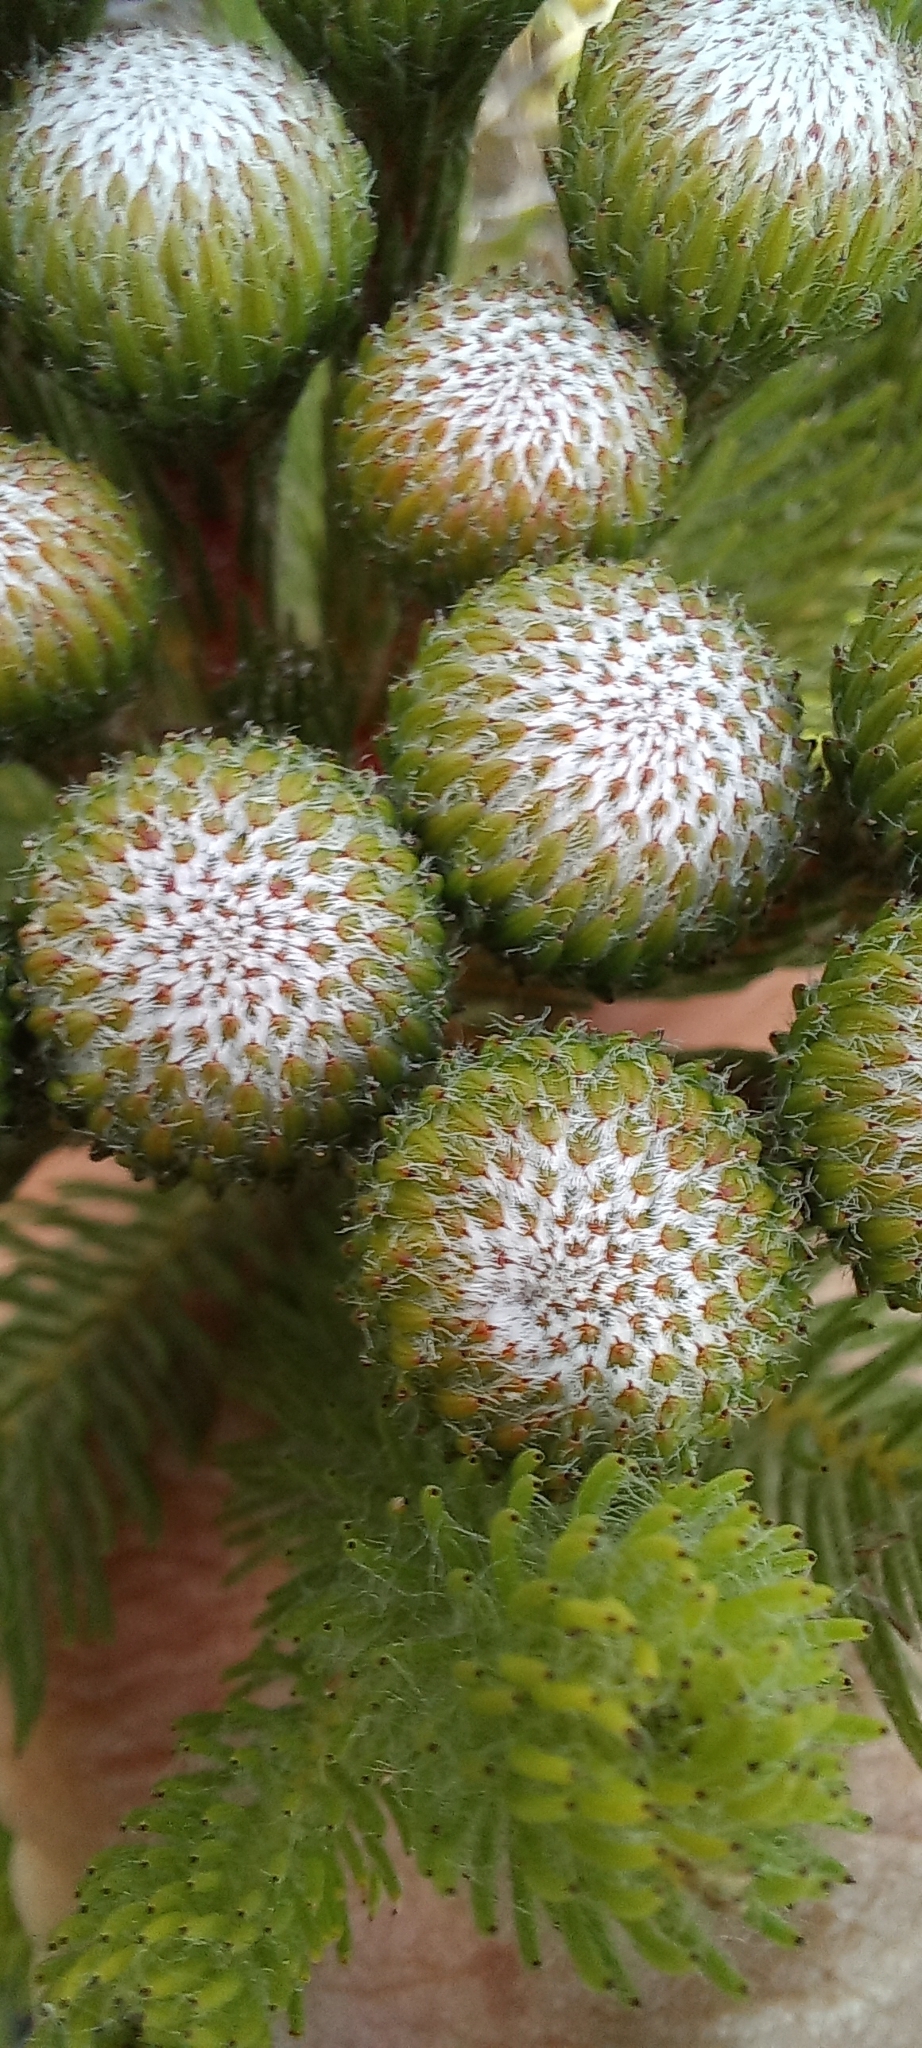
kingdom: Plantae
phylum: Tracheophyta
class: Magnoliopsida
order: Bruniales
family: Bruniaceae
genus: Berzelia
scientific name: Berzelia albiflora
